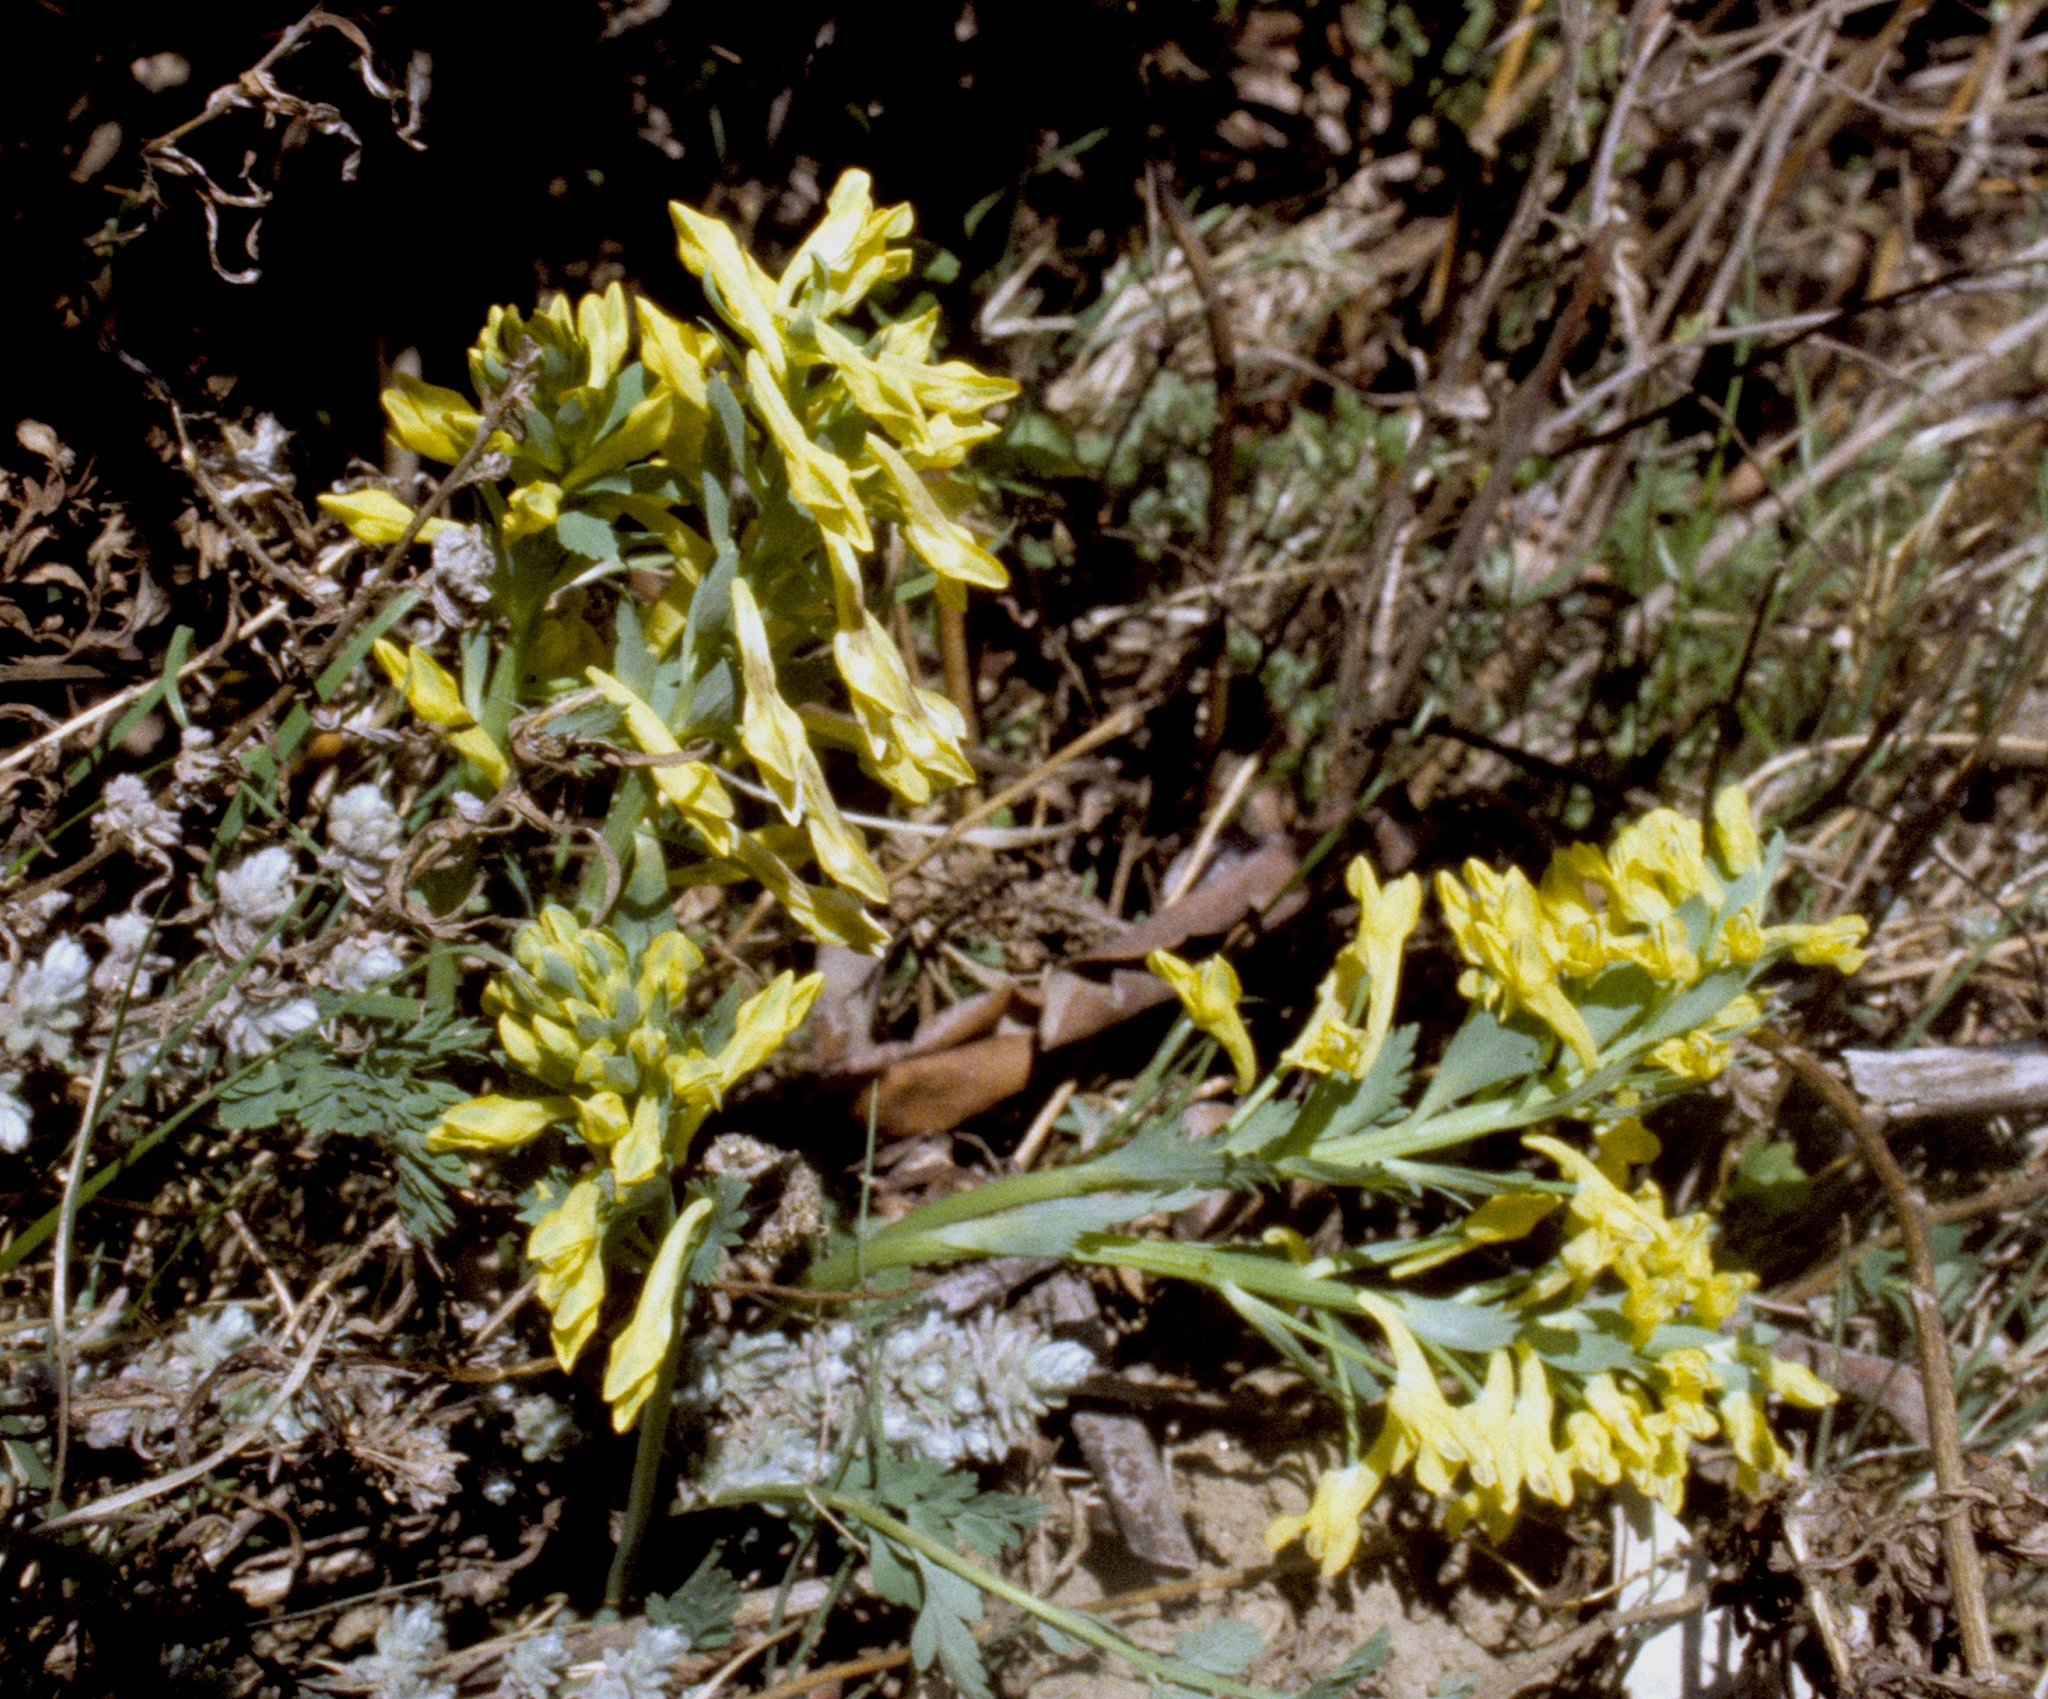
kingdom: Plantae
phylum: Tracheophyta
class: Magnoliopsida
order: Ranunculales
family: Papaveraceae
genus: Corydalis
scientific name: Corydalis govaniana
